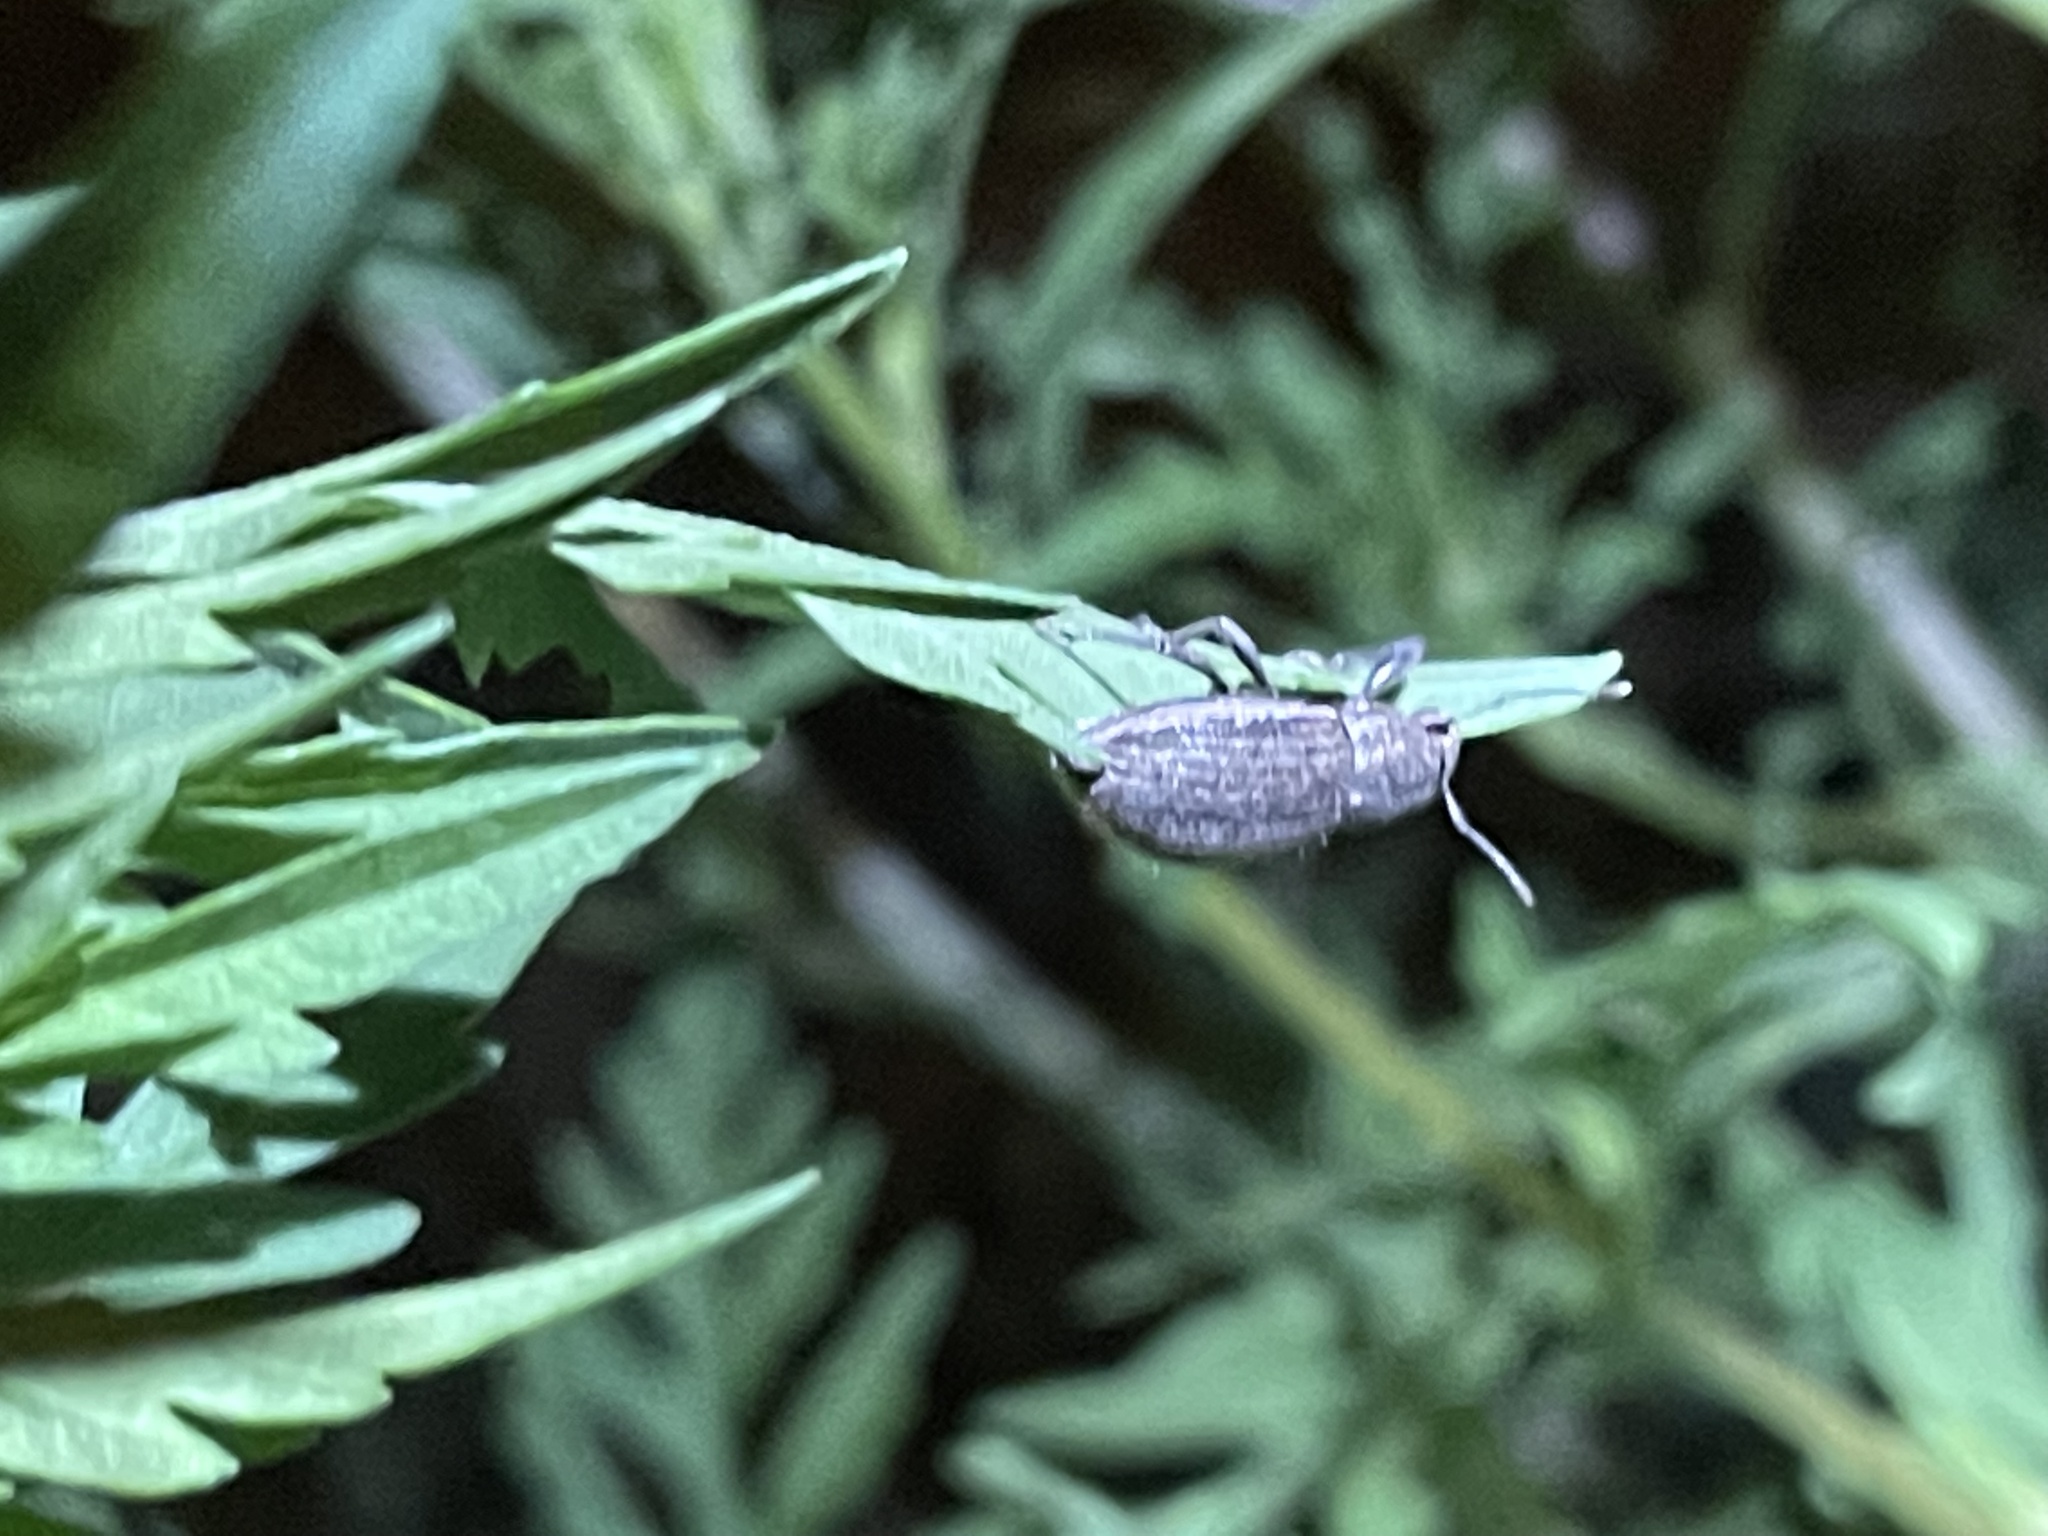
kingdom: Animalia
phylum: Arthropoda
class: Insecta
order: Coleoptera
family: Curculionidae
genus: Naupactus
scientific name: Naupactus leucoloma
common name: Whitefringed beetle
